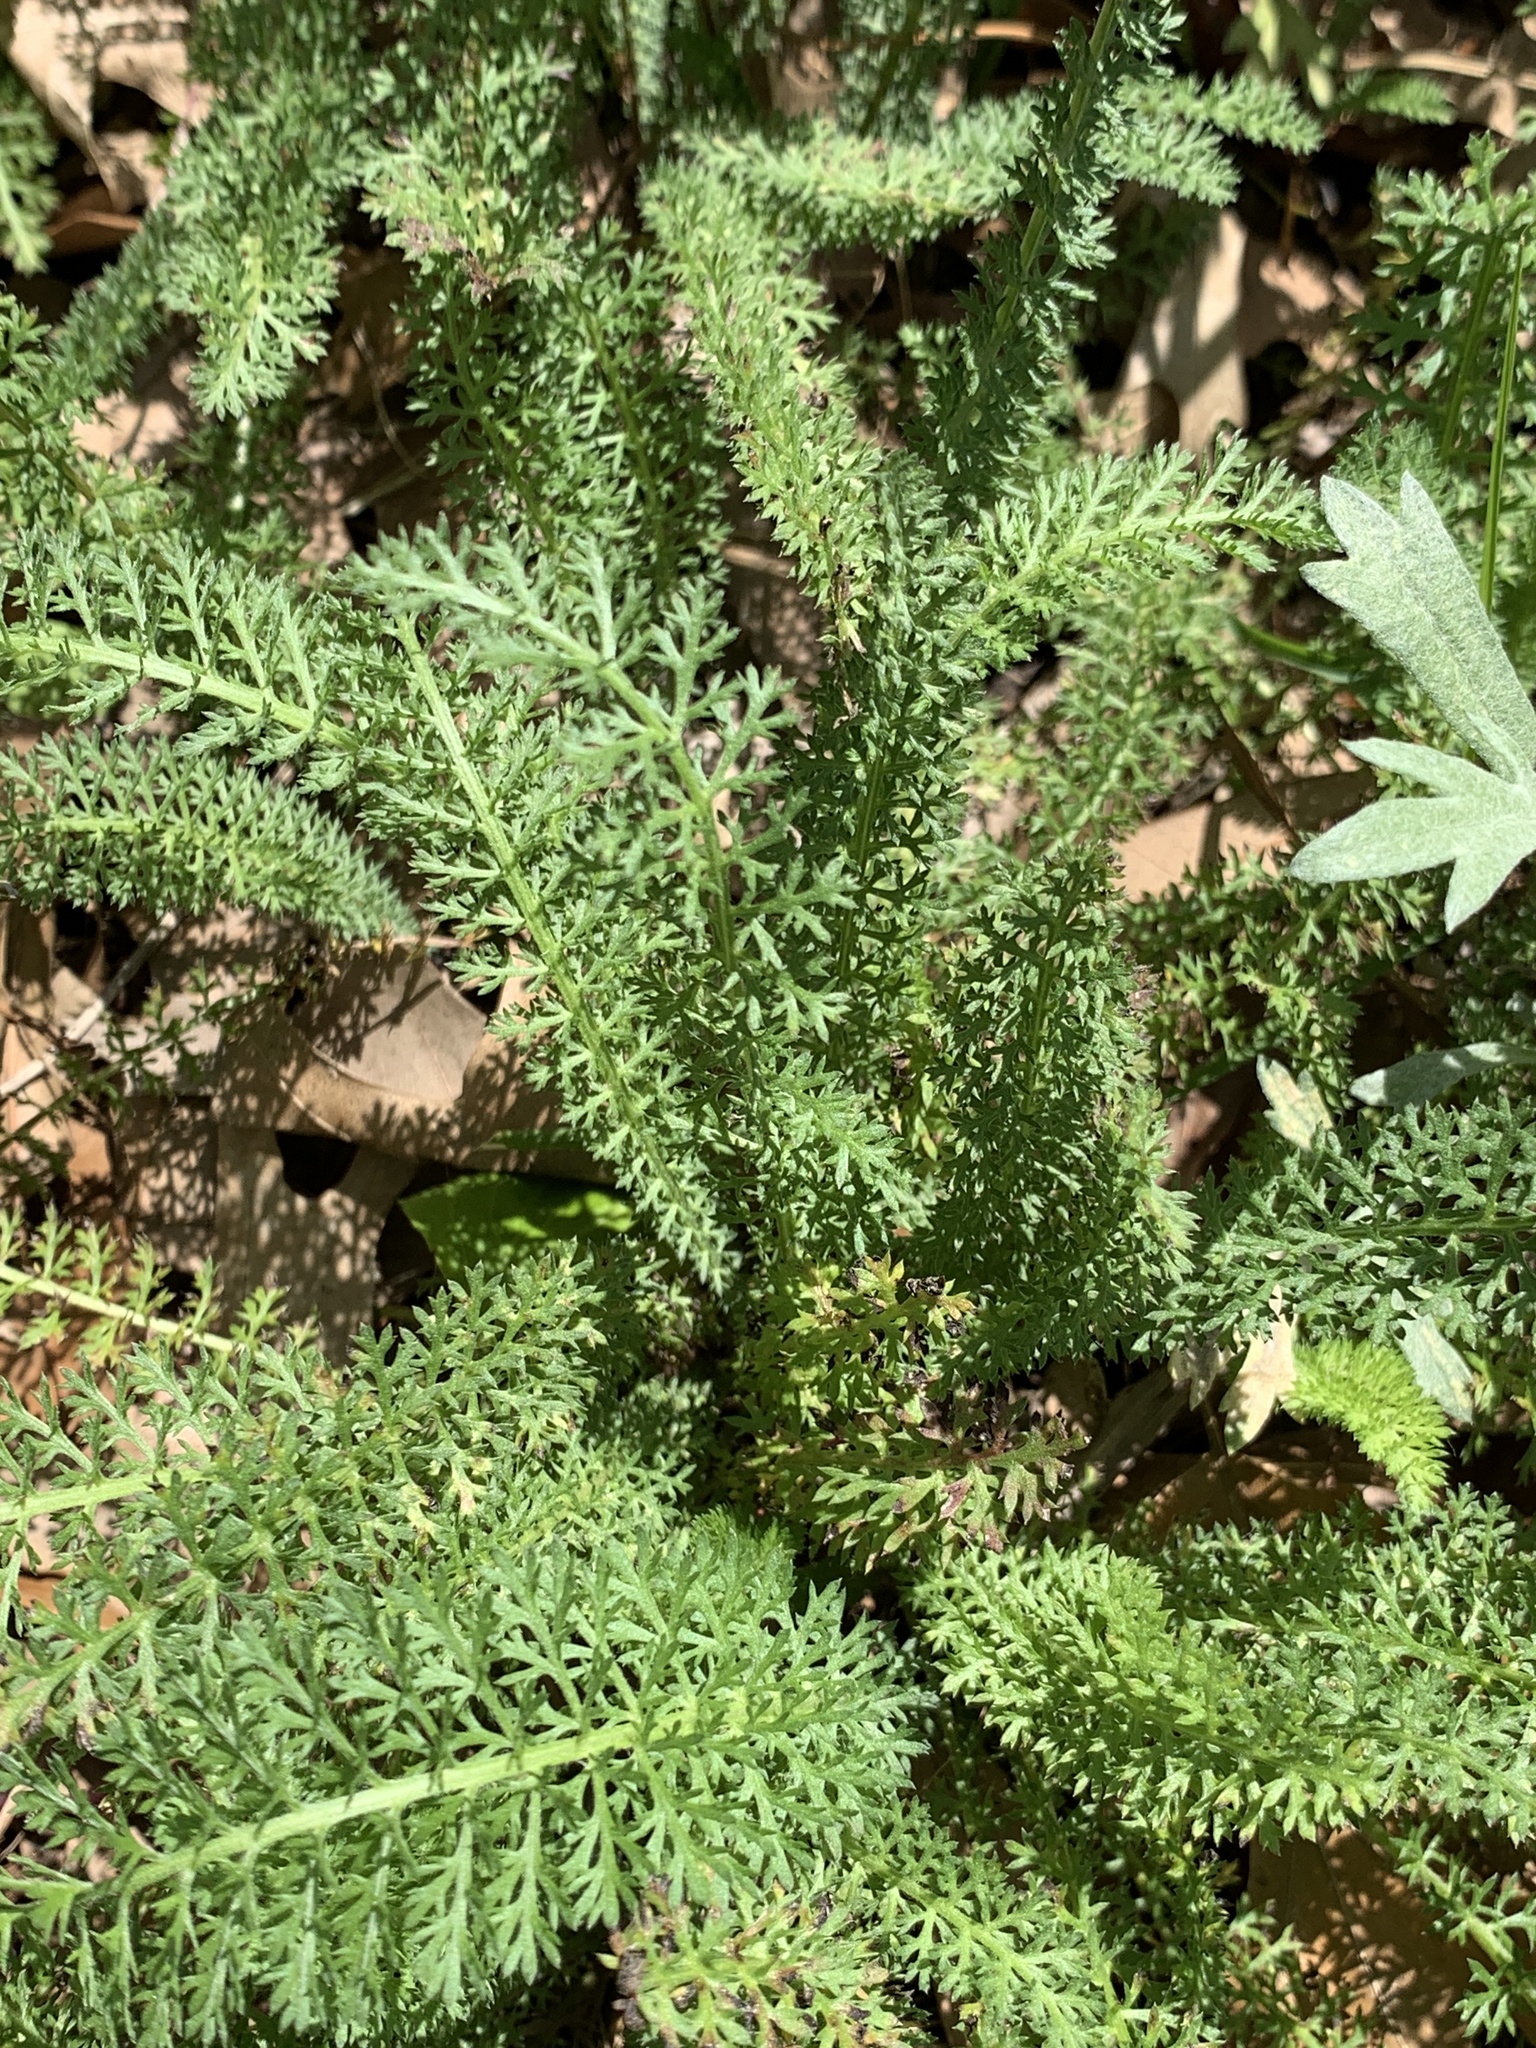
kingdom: Plantae
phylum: Tracheophyta
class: Magnoliopsida
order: Asterales
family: Asteraceae
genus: Achillea
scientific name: Achillea millefolium
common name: Yarrow
